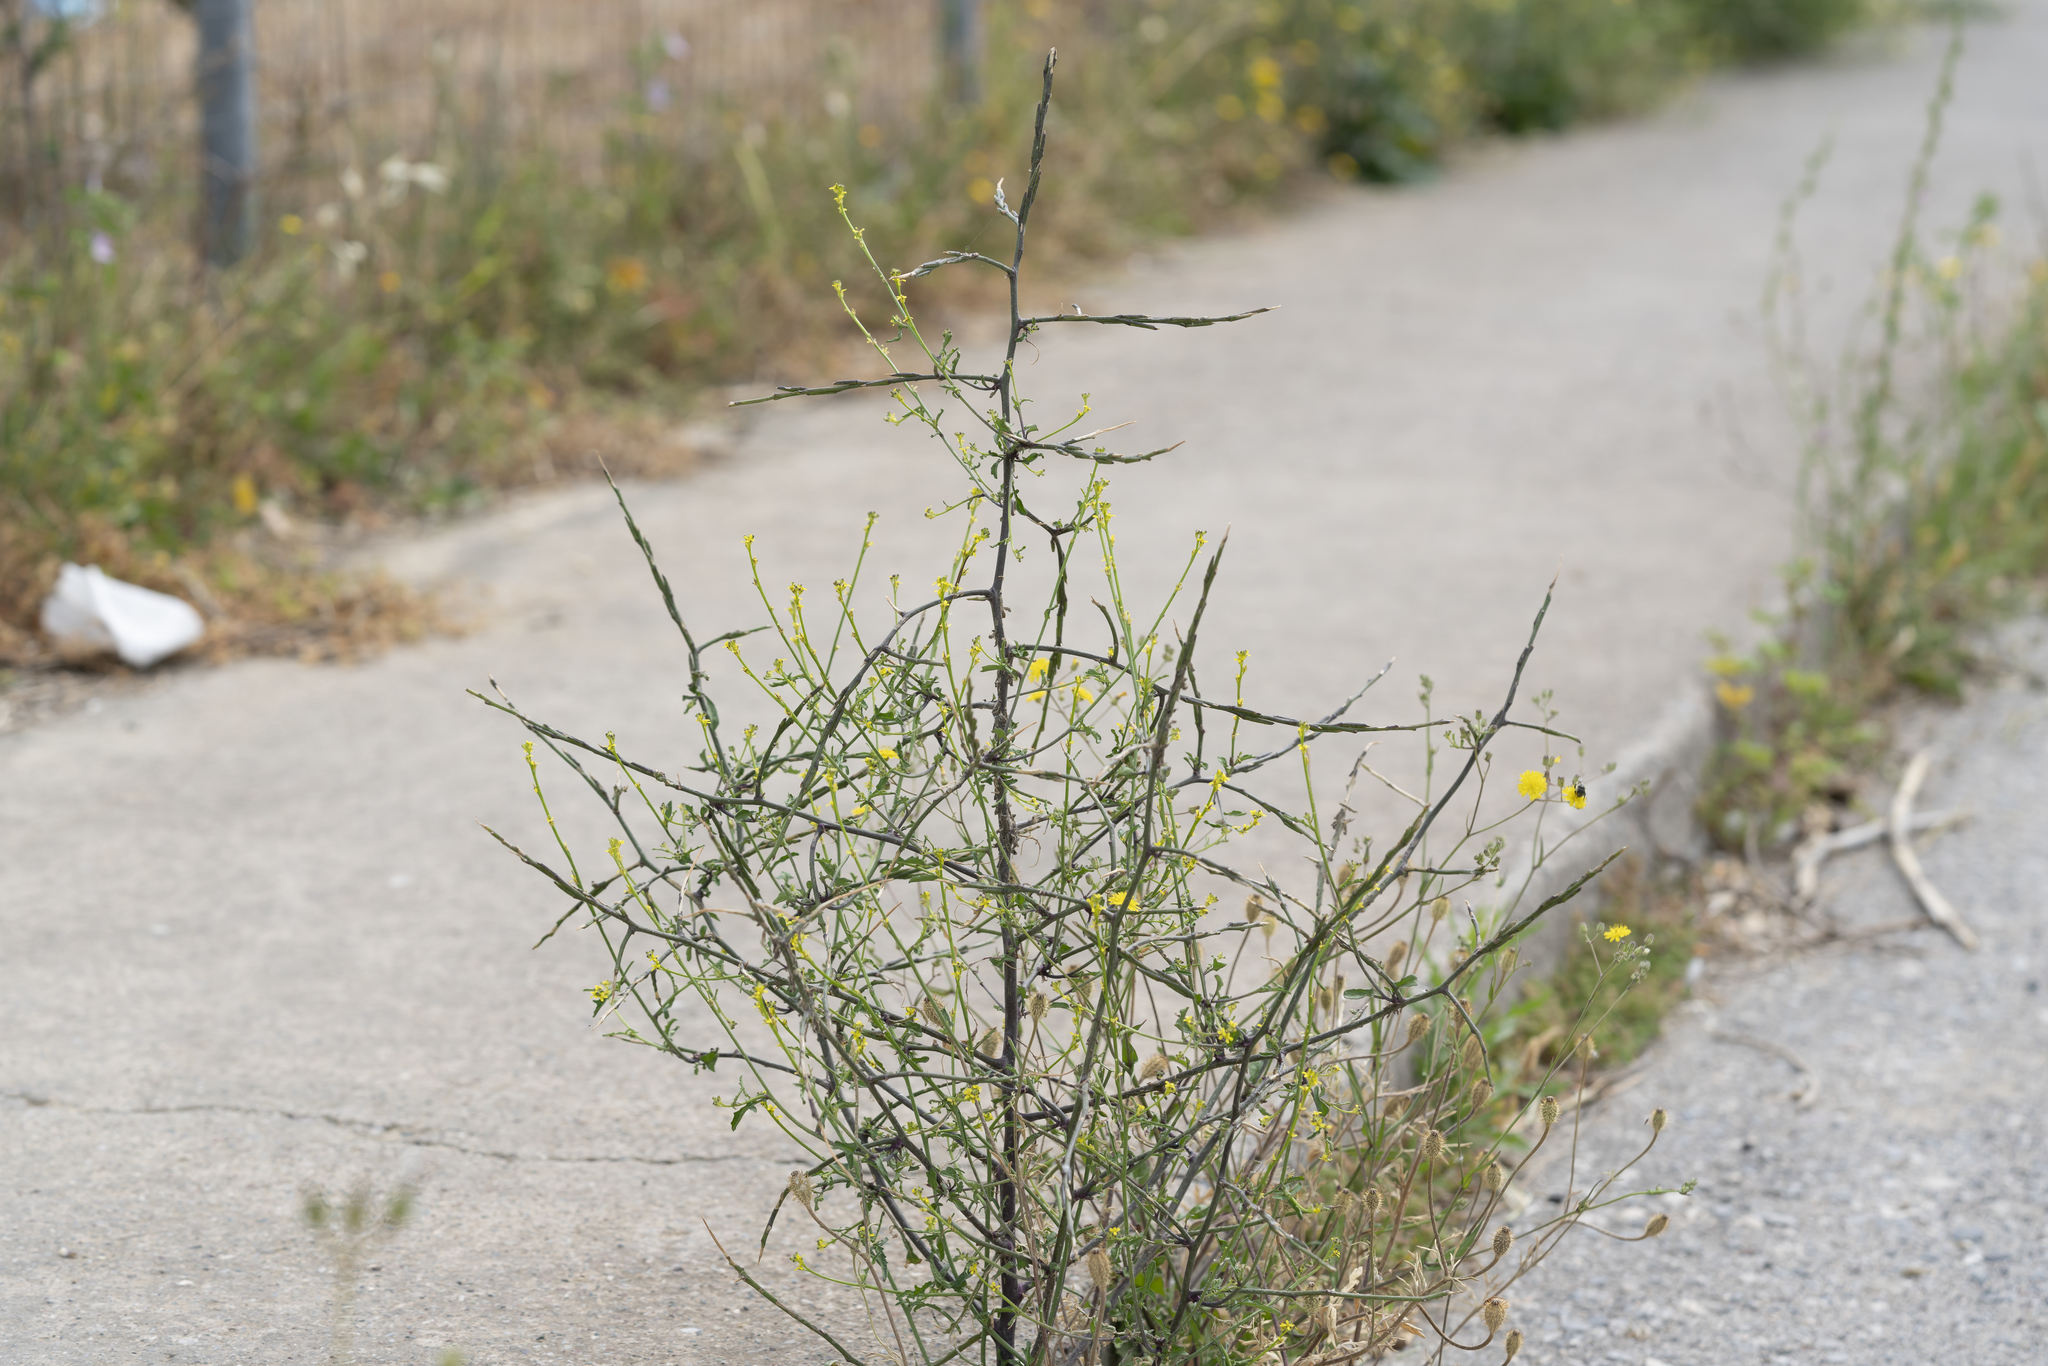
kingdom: Plantae
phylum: Tracheophyta
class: Magnoliopsida
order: Brassicales
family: Brassicaceae
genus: Sisymbrium
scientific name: Sisymbrium officinale
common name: Hedge mustard
